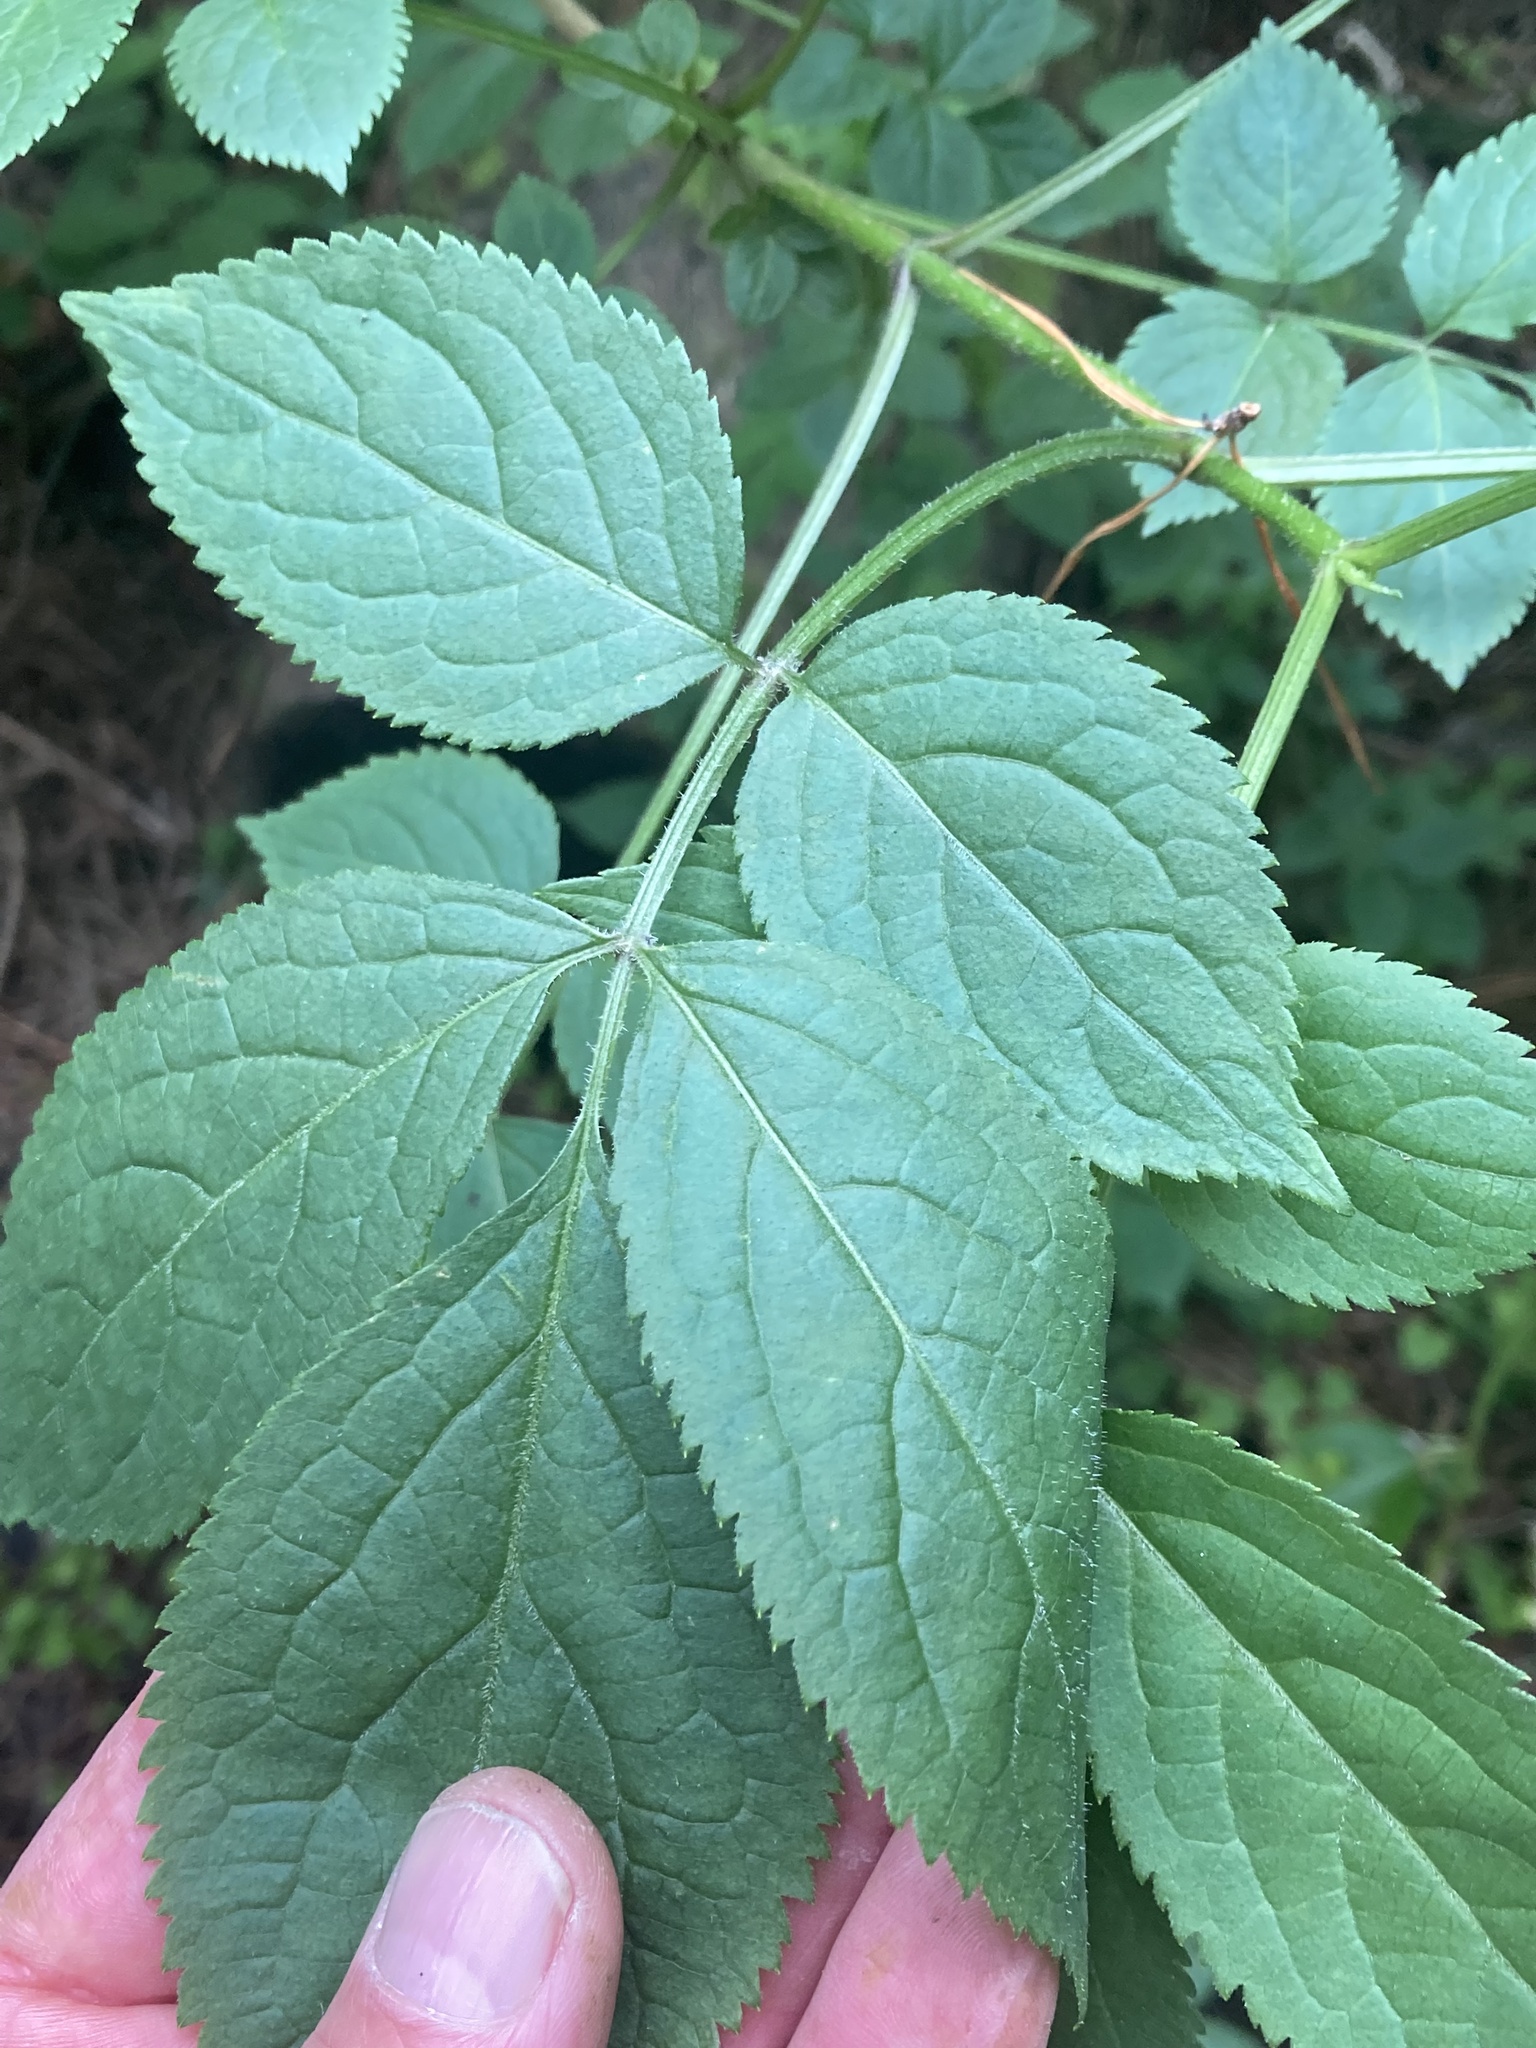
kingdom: Plantae
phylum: Tracheophyta
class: Magnoliopsida
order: Dipsacales
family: Viburnaceae
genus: Sambucus
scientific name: Sambucus nigra
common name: Elder
